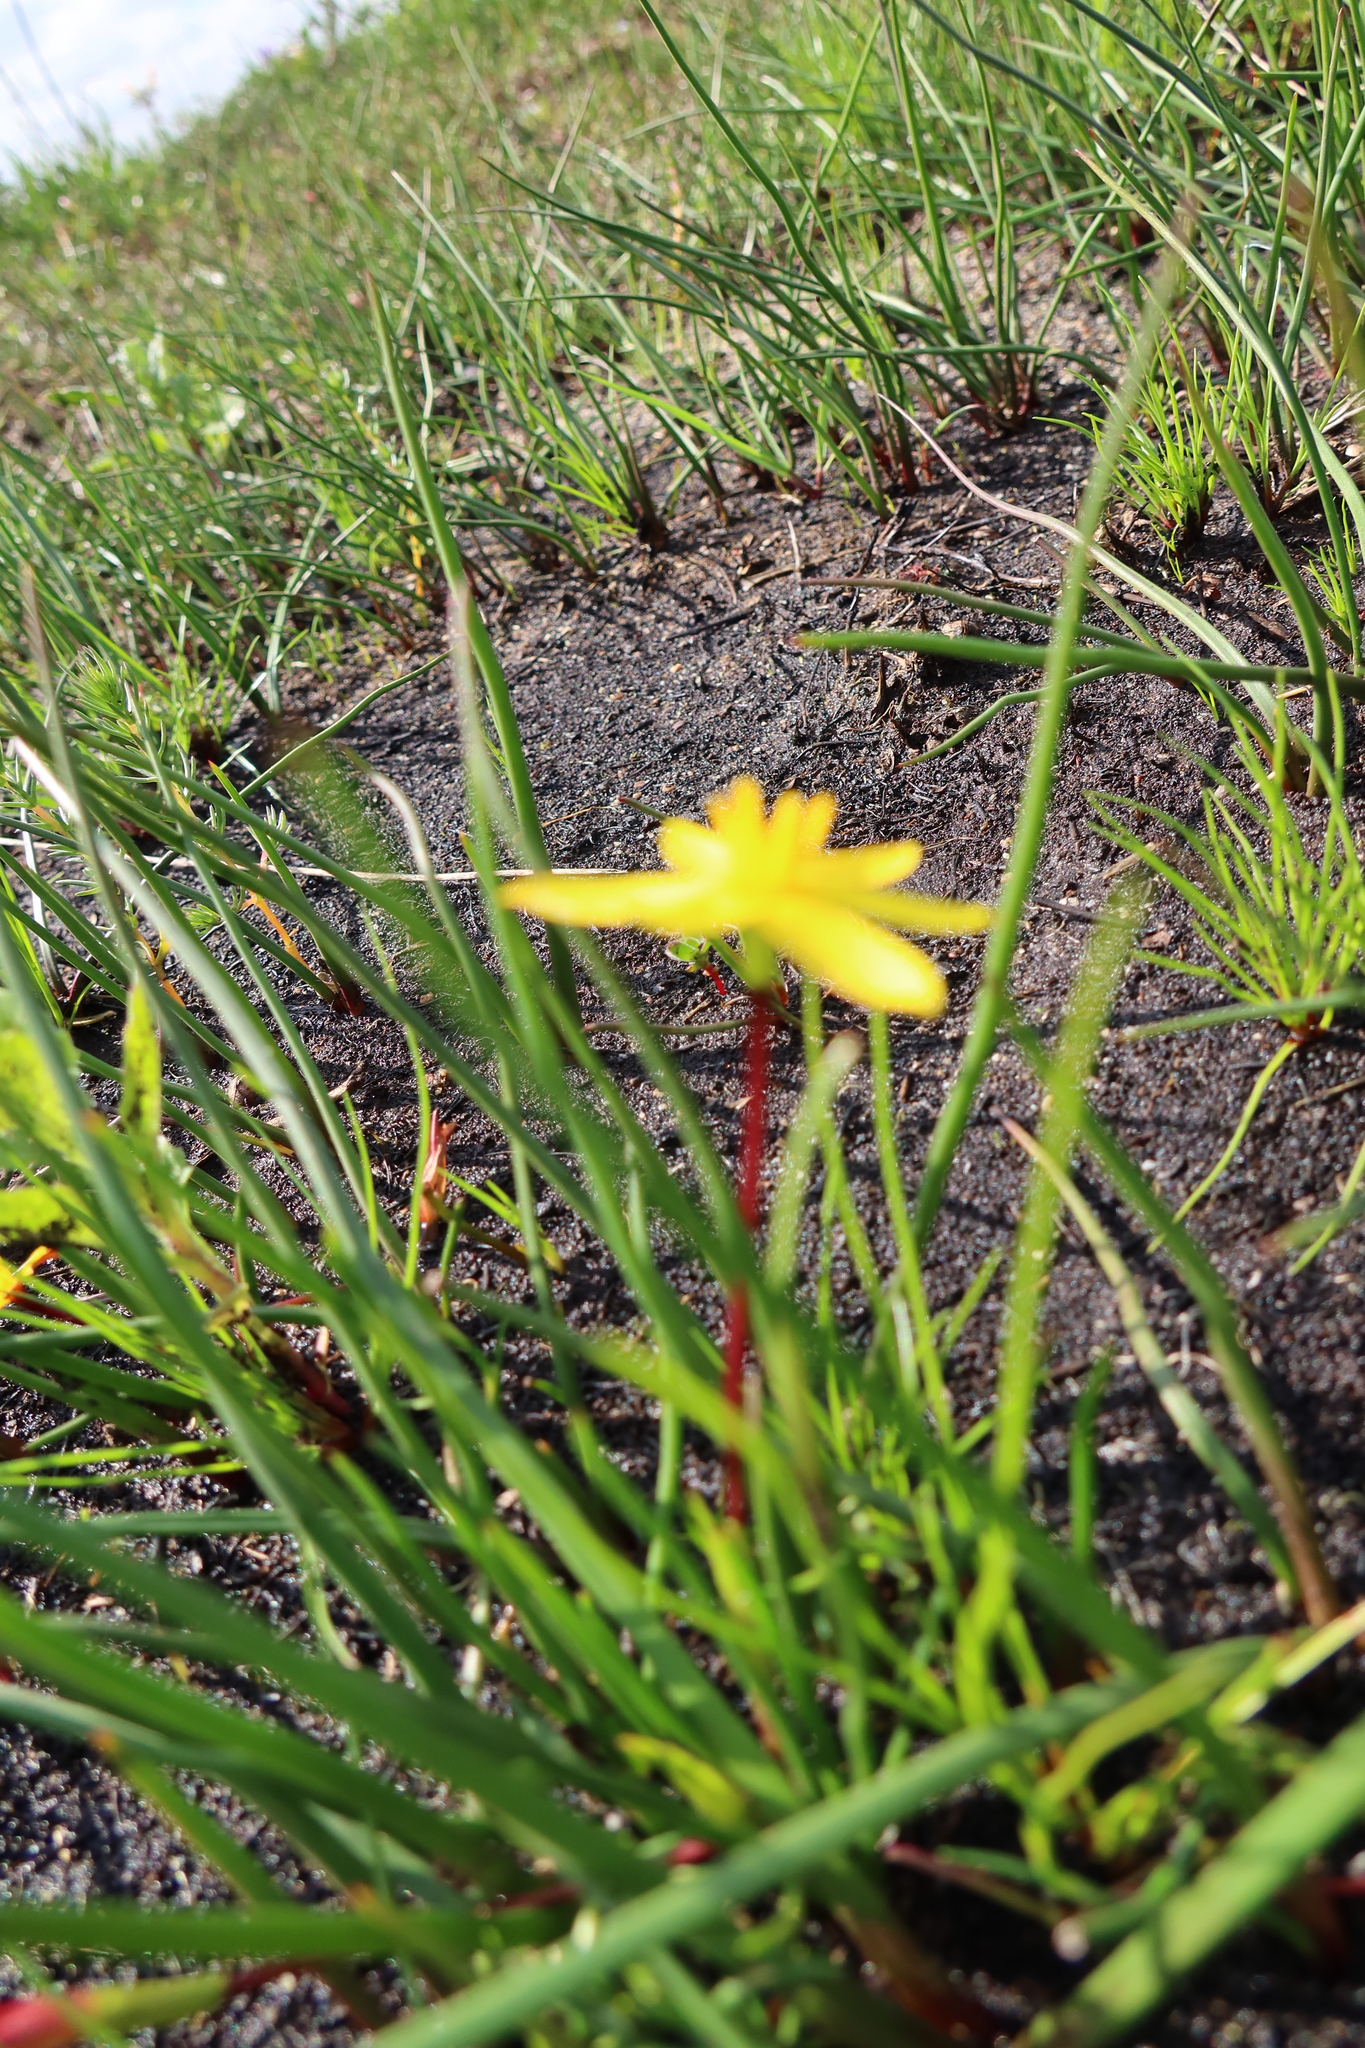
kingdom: Plantae
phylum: Tracheophyta
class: Liliopsida
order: Asparagales
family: Hypoxidaceae
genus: Pauridia
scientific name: Pauridia affinis
